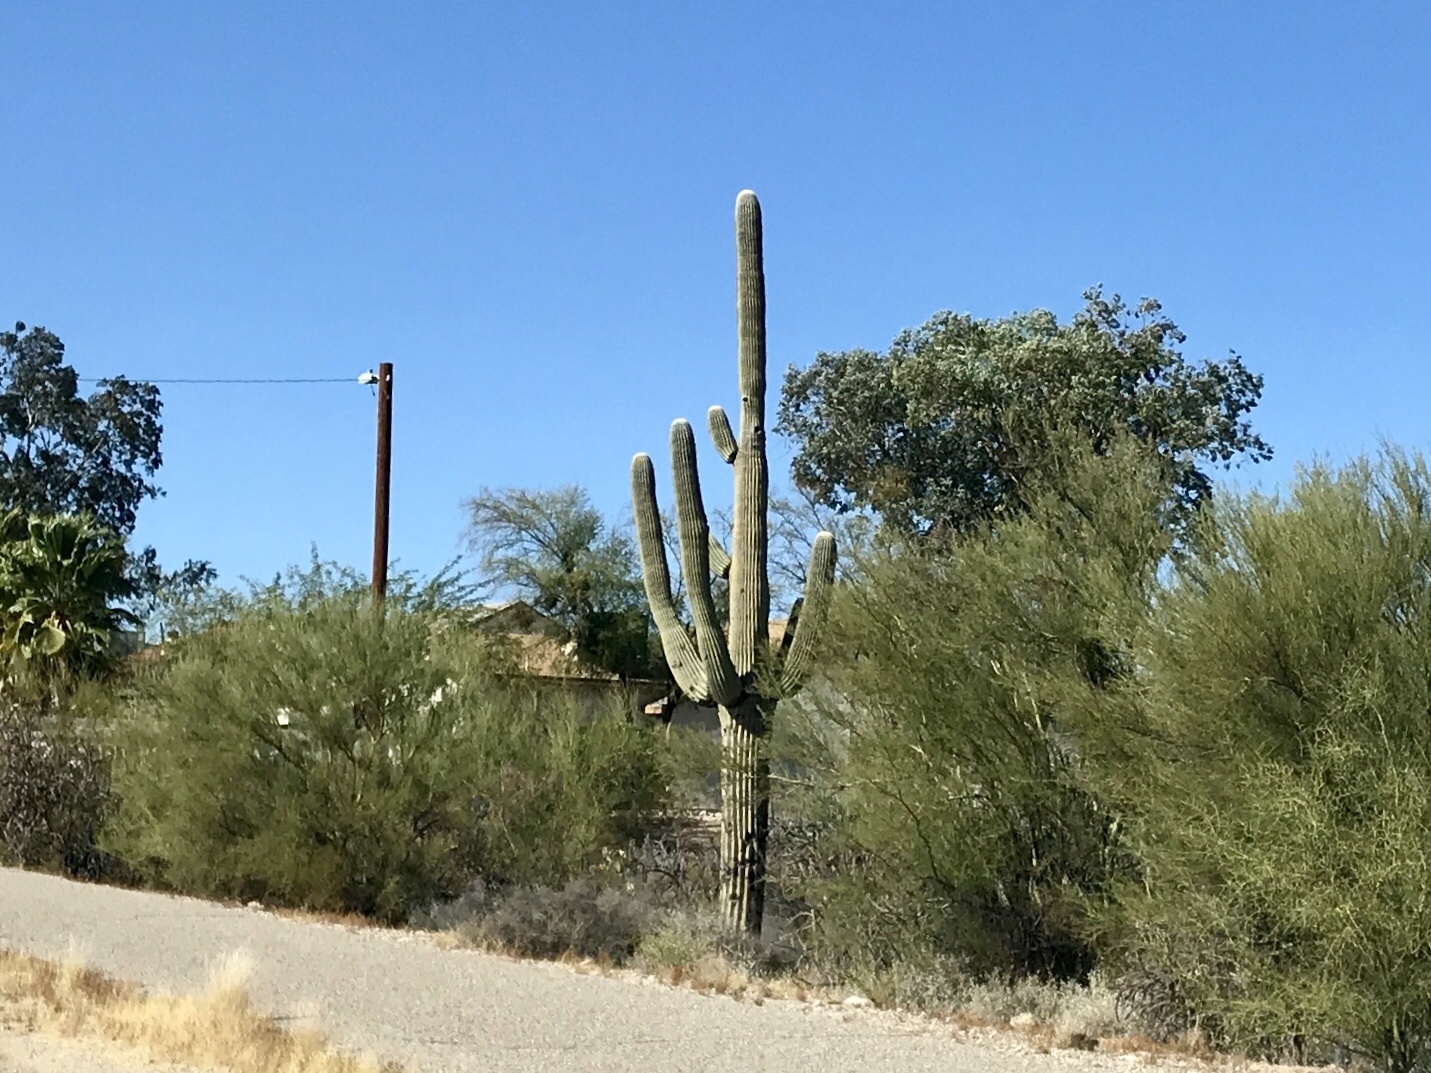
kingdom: Plantae
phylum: Tracheophyta
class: Magnoliopsida
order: Caryophyllales
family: Cactaceae
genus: Carnegiea
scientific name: Carnegiea gigantea
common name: Saguaro
